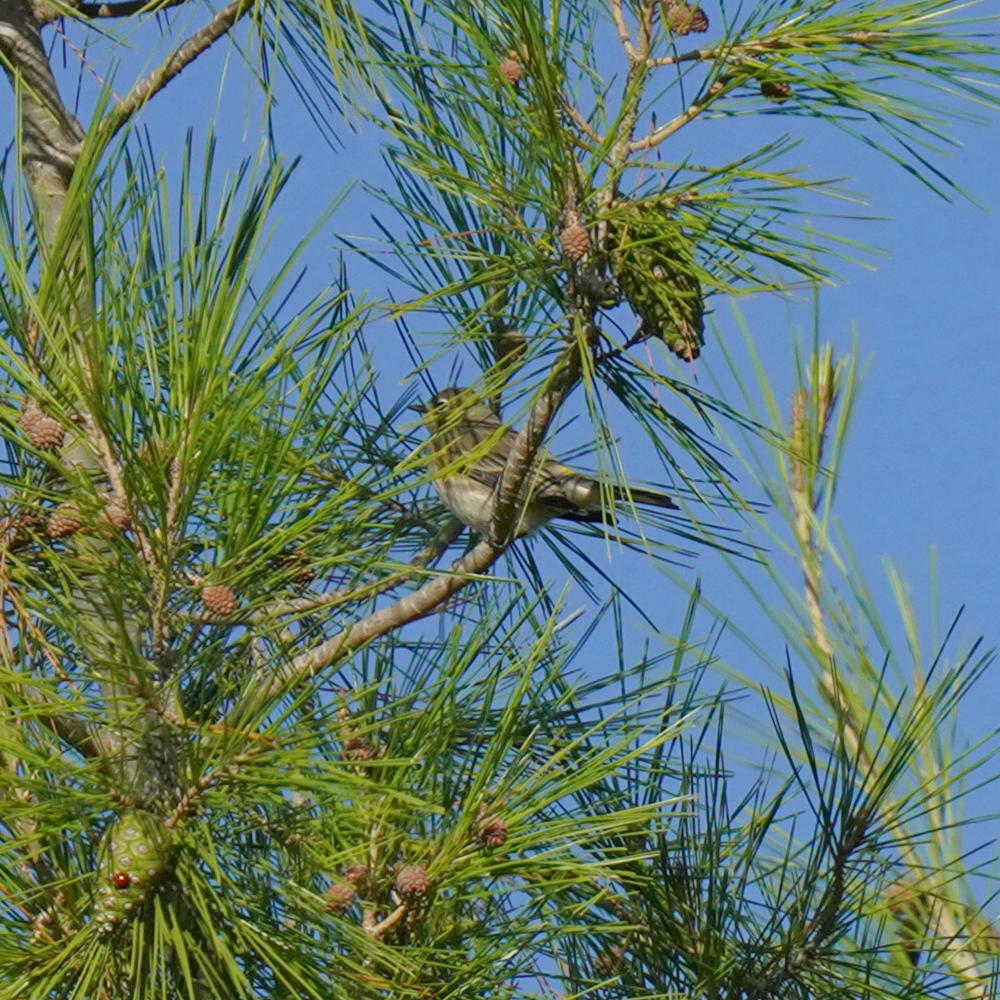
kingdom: Animalia
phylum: Chordata
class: Aves
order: Passeriformes
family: Parulidae
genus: Setophaga
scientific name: Setophaga coronata
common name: Myrtle warbler
